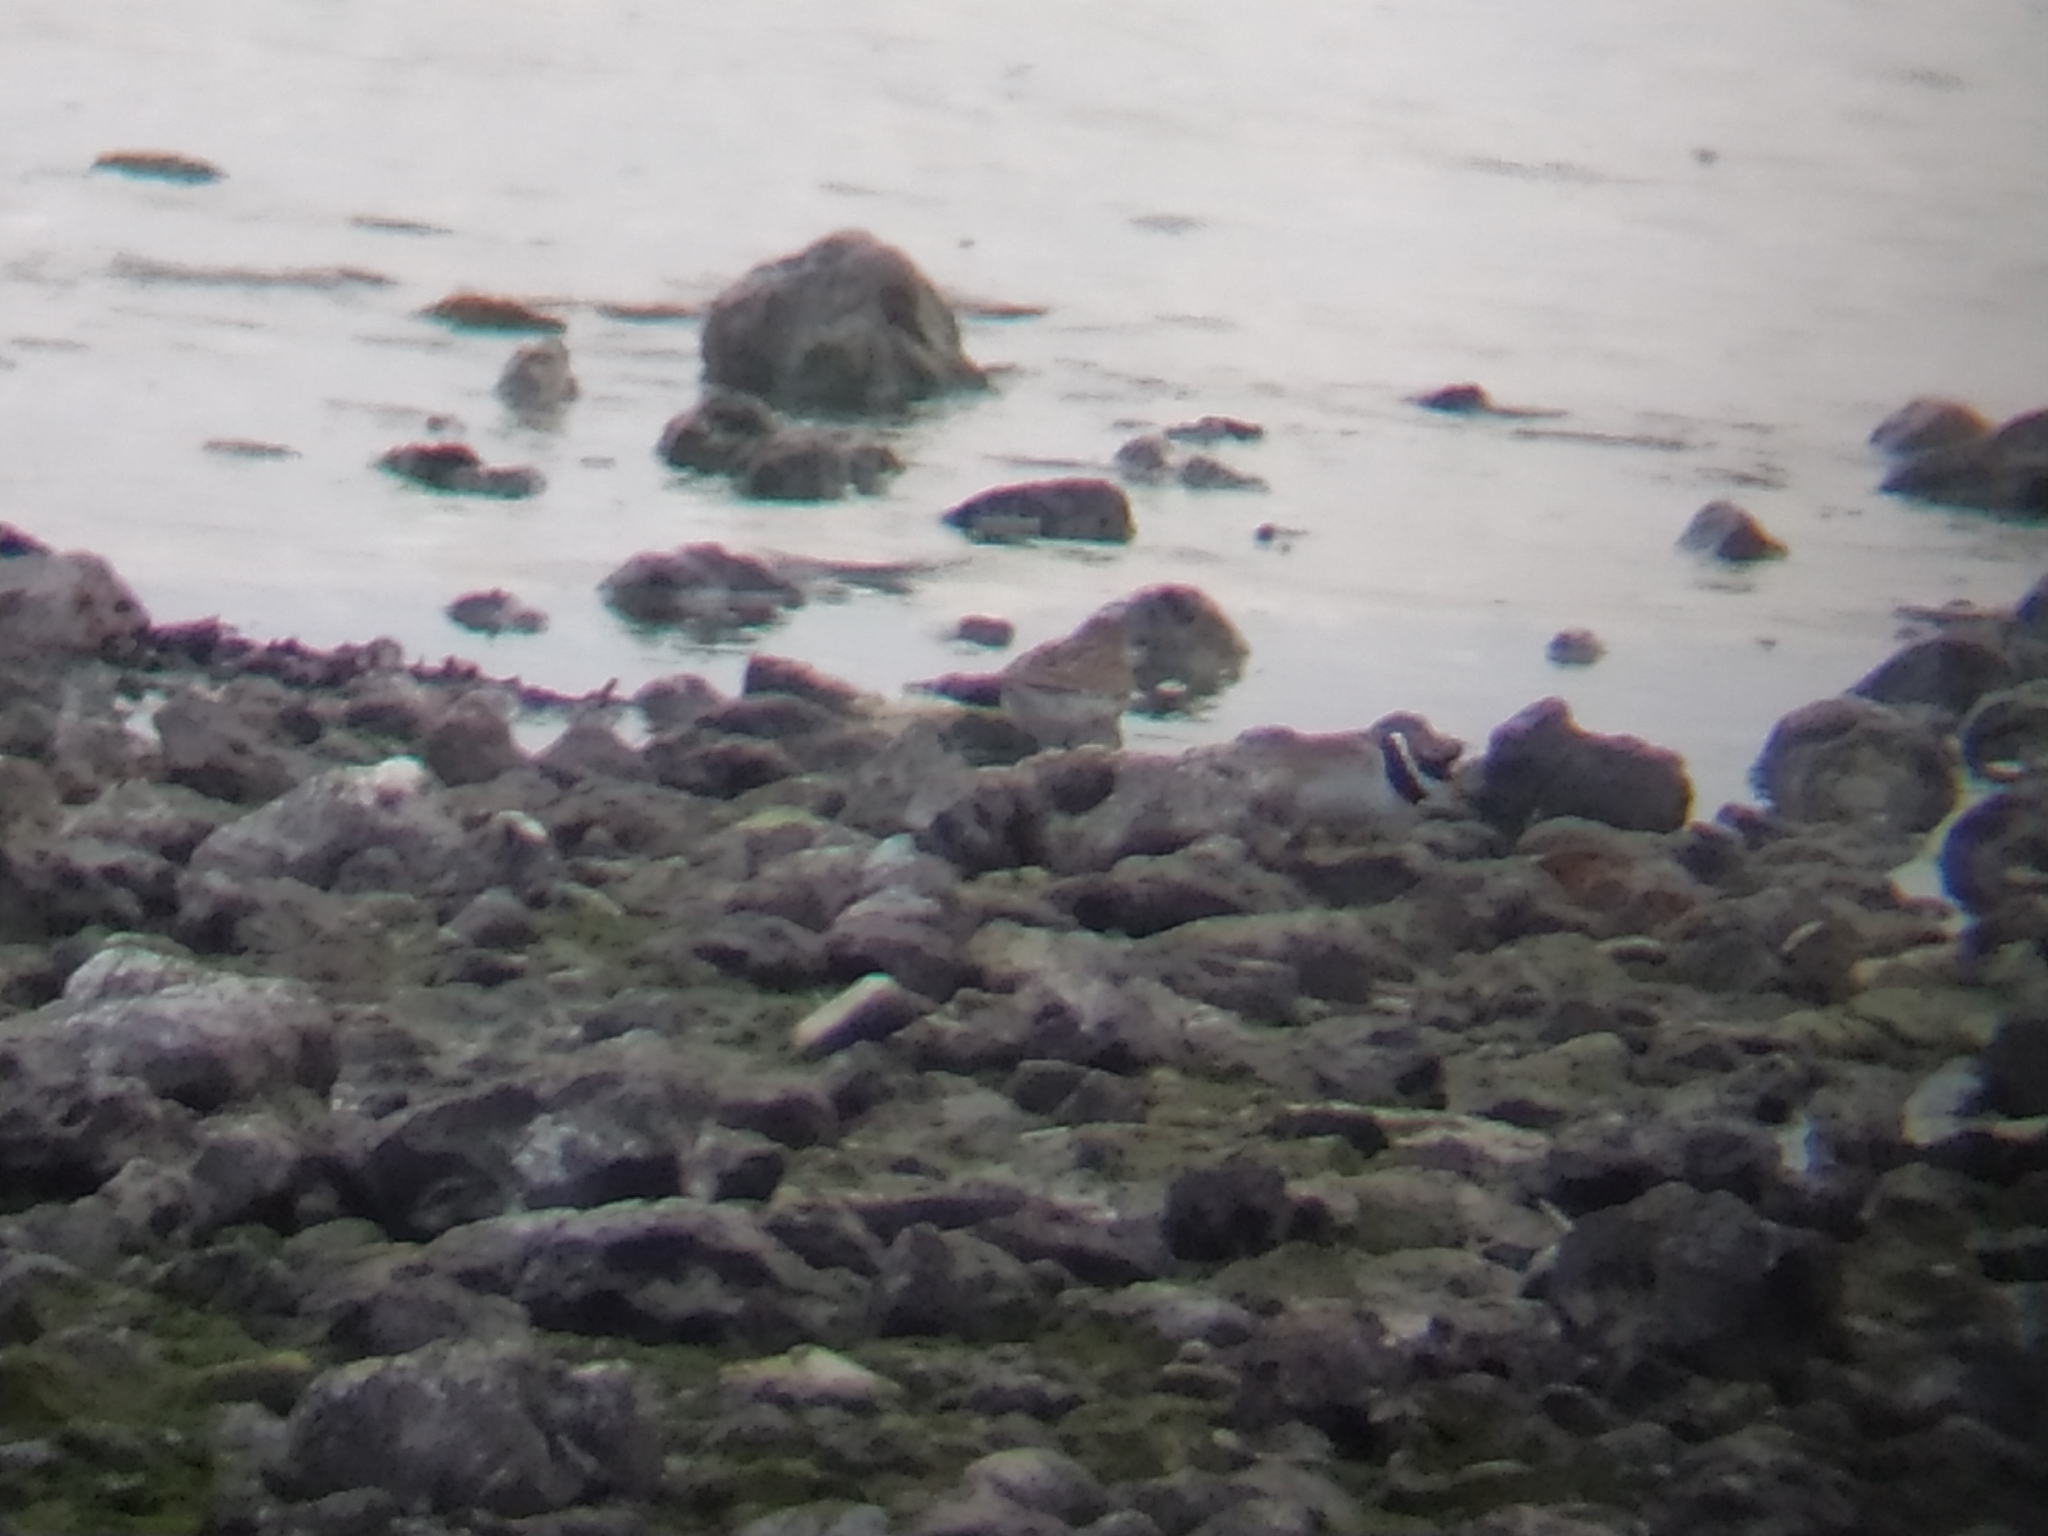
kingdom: Animalia
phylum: Chordata
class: Aves
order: Charadriiformes
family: Charadriidae
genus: Charadrius
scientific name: Charadrius hiaticula
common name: Common ringed plover
